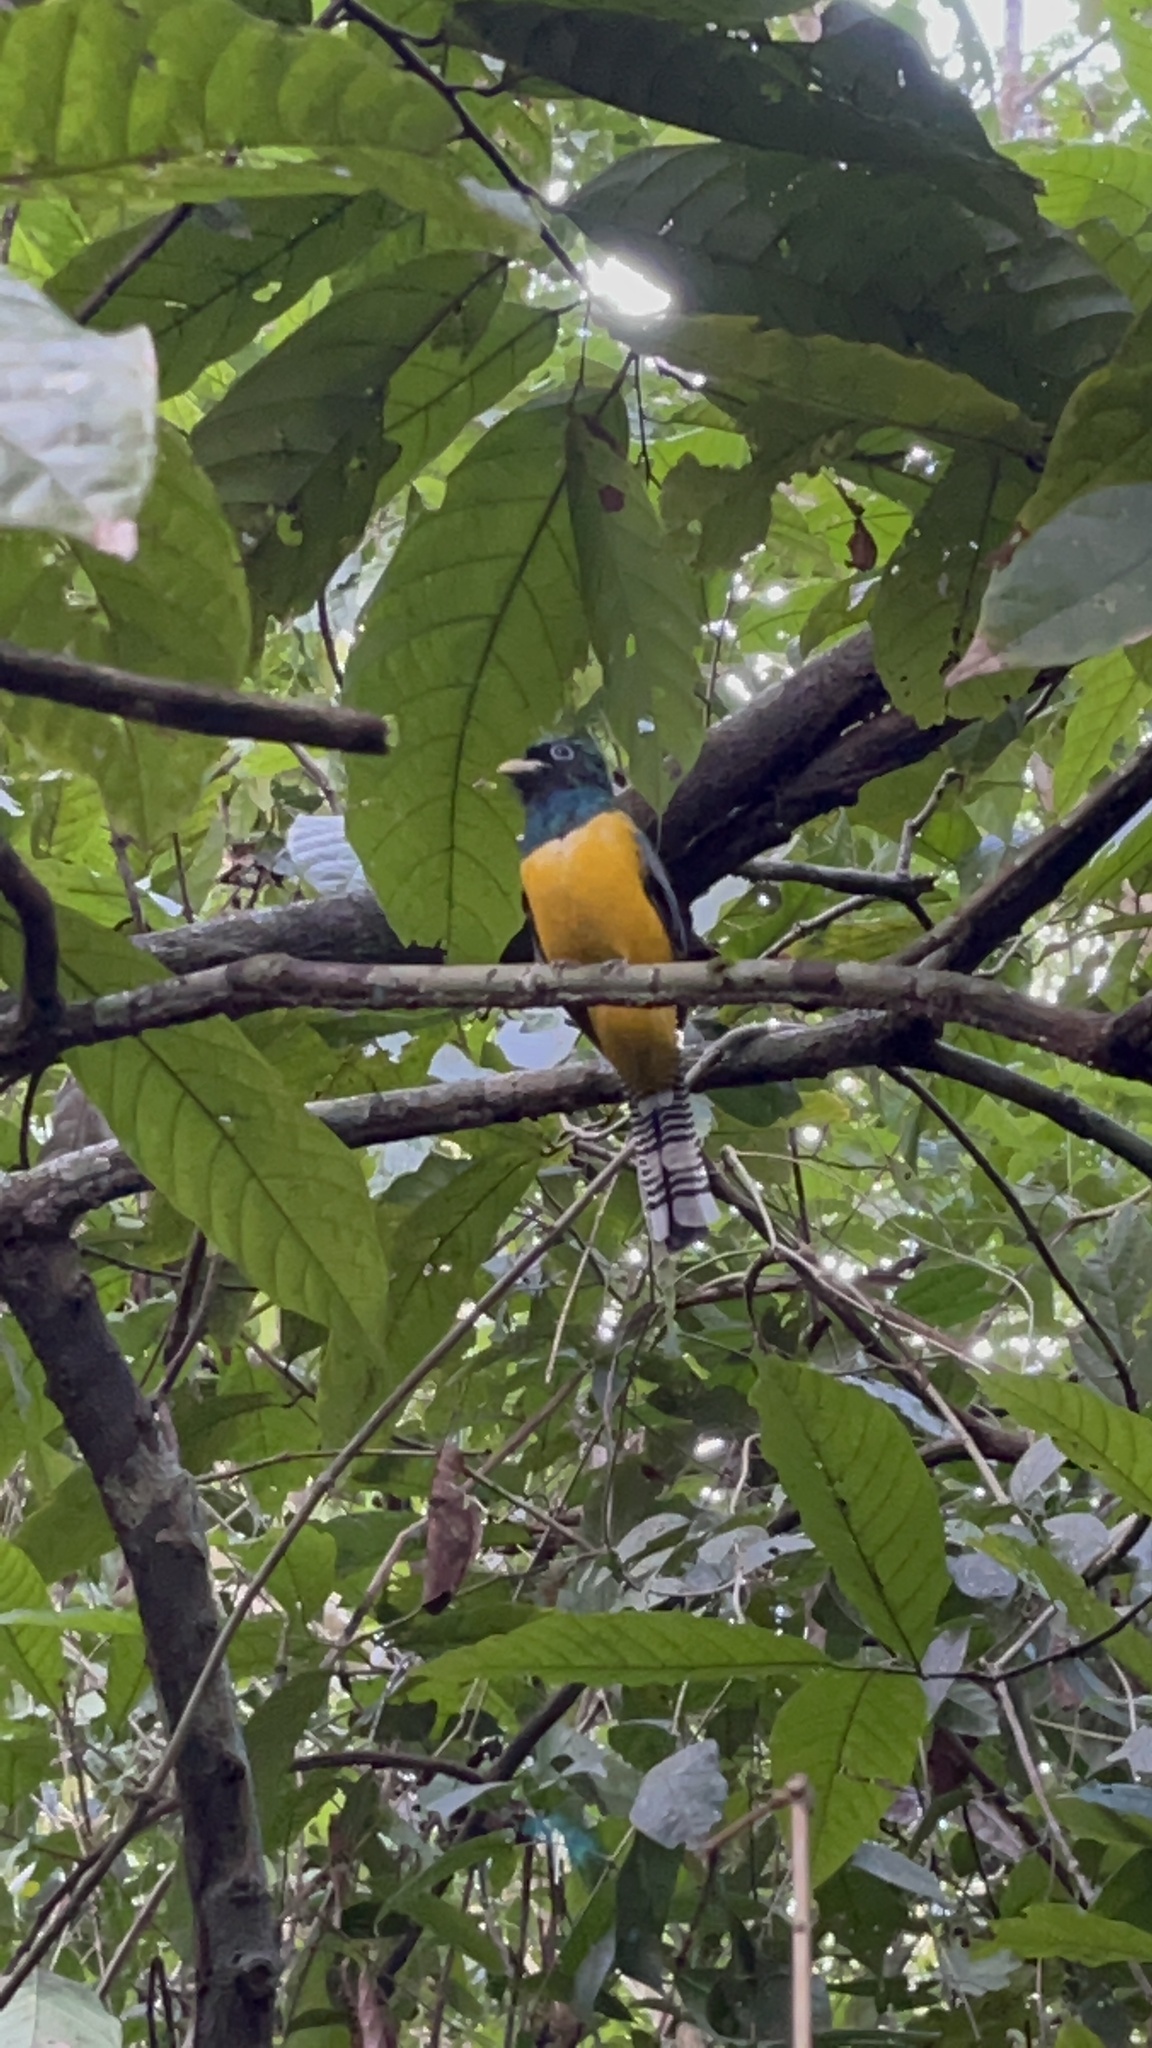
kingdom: Animalia
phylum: Chordata
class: Aves
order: Trogoniformes
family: Trogonidae
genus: Trogon
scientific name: Trogon rufus
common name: Black-throated trogon
